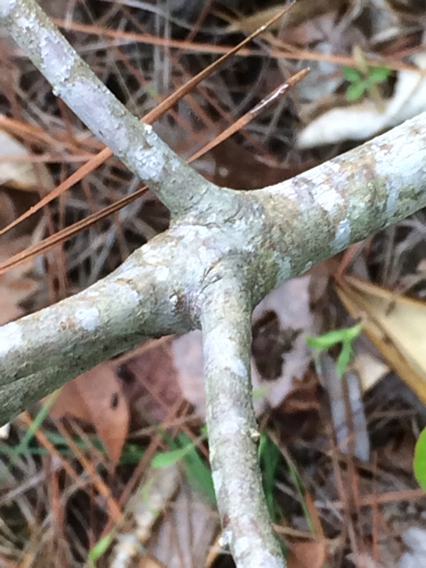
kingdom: Plantae
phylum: Tracheophyta
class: Magnoliopsida
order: Ericales
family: Symplocaceae
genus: Symplocos
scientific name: Symplocos tinctoria
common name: Horse-sugar
